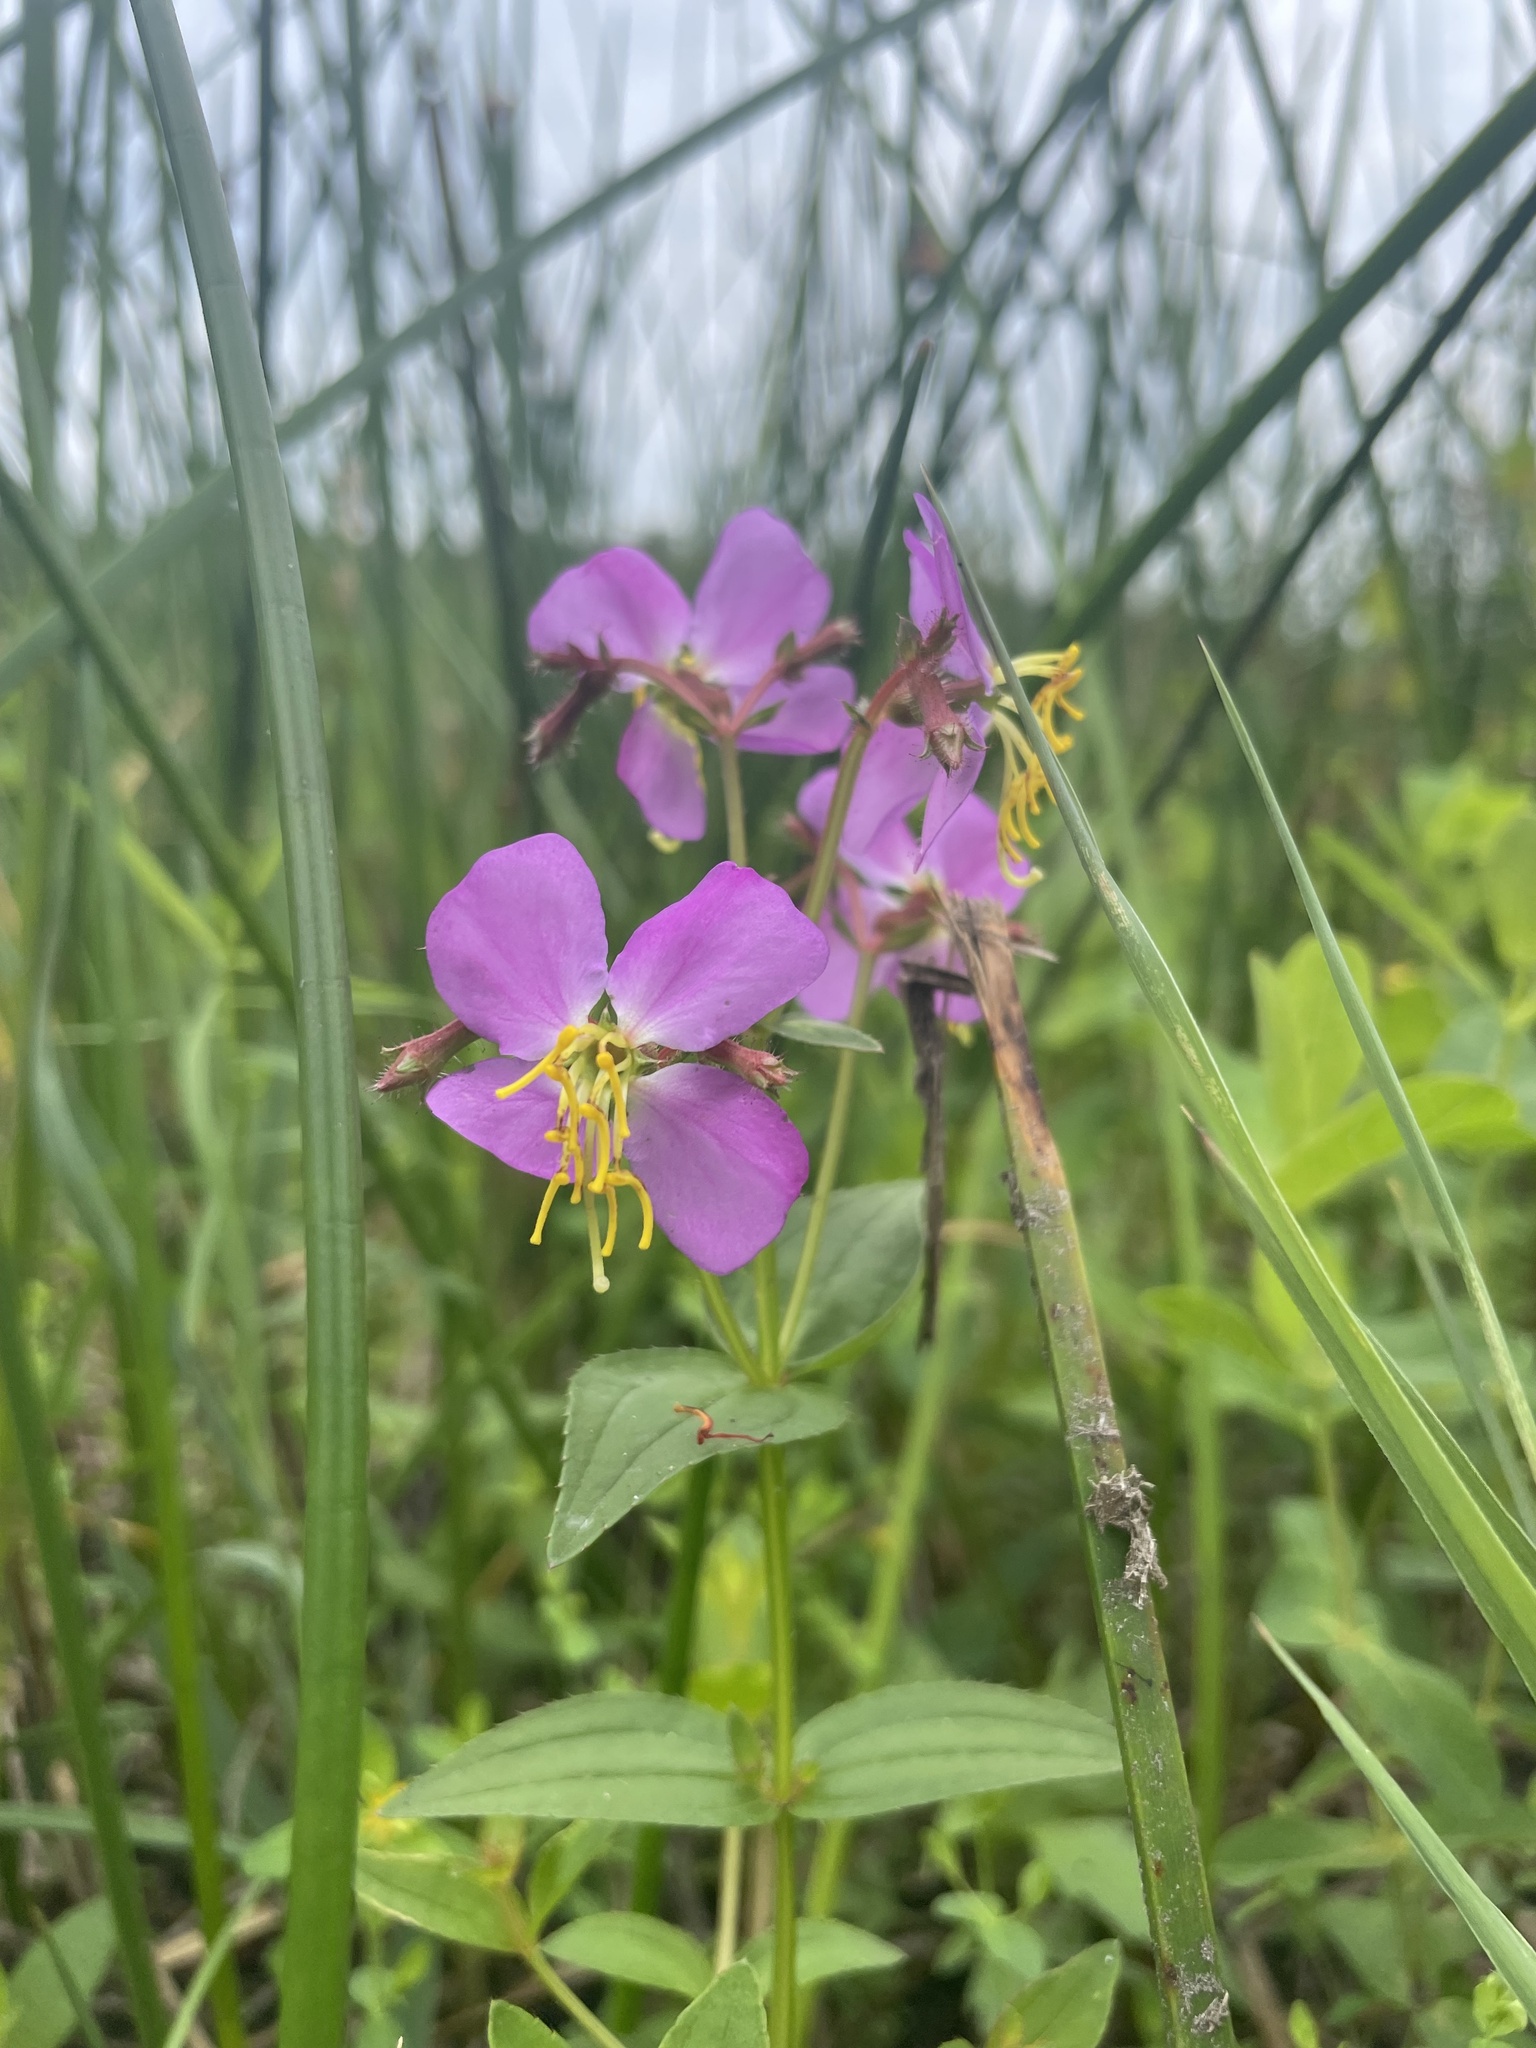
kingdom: Plantae
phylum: Tracheophyta
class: Magnoliopsida
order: Myrtales
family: Melastomataceae
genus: Rhexia
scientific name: Rhexia virginica
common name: Common meadow beauty
